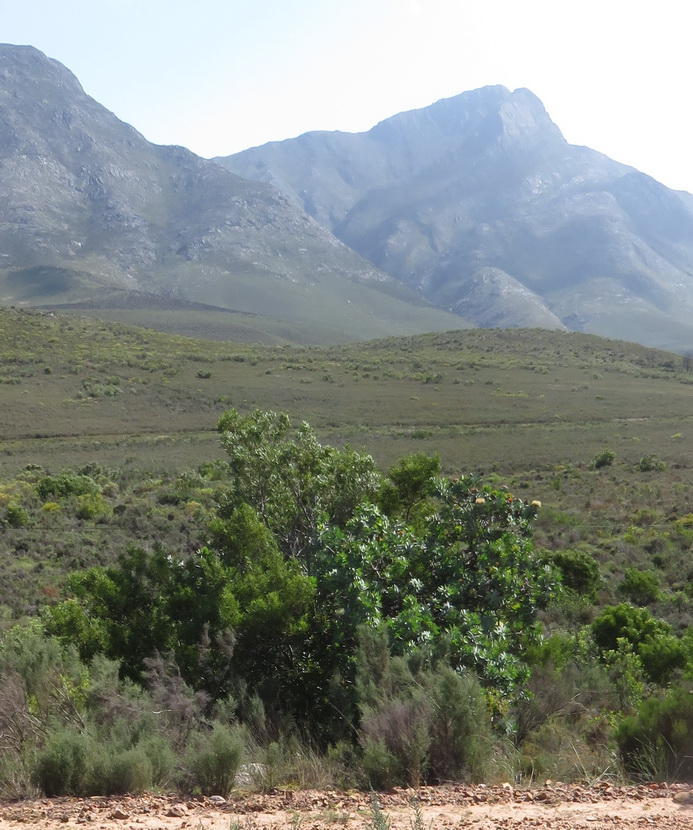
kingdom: Plantae
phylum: Tracheophyta
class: Magnoliopsida
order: Proteales
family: Proteaceae
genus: Protea
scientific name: Protea nitida
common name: Tree protea
